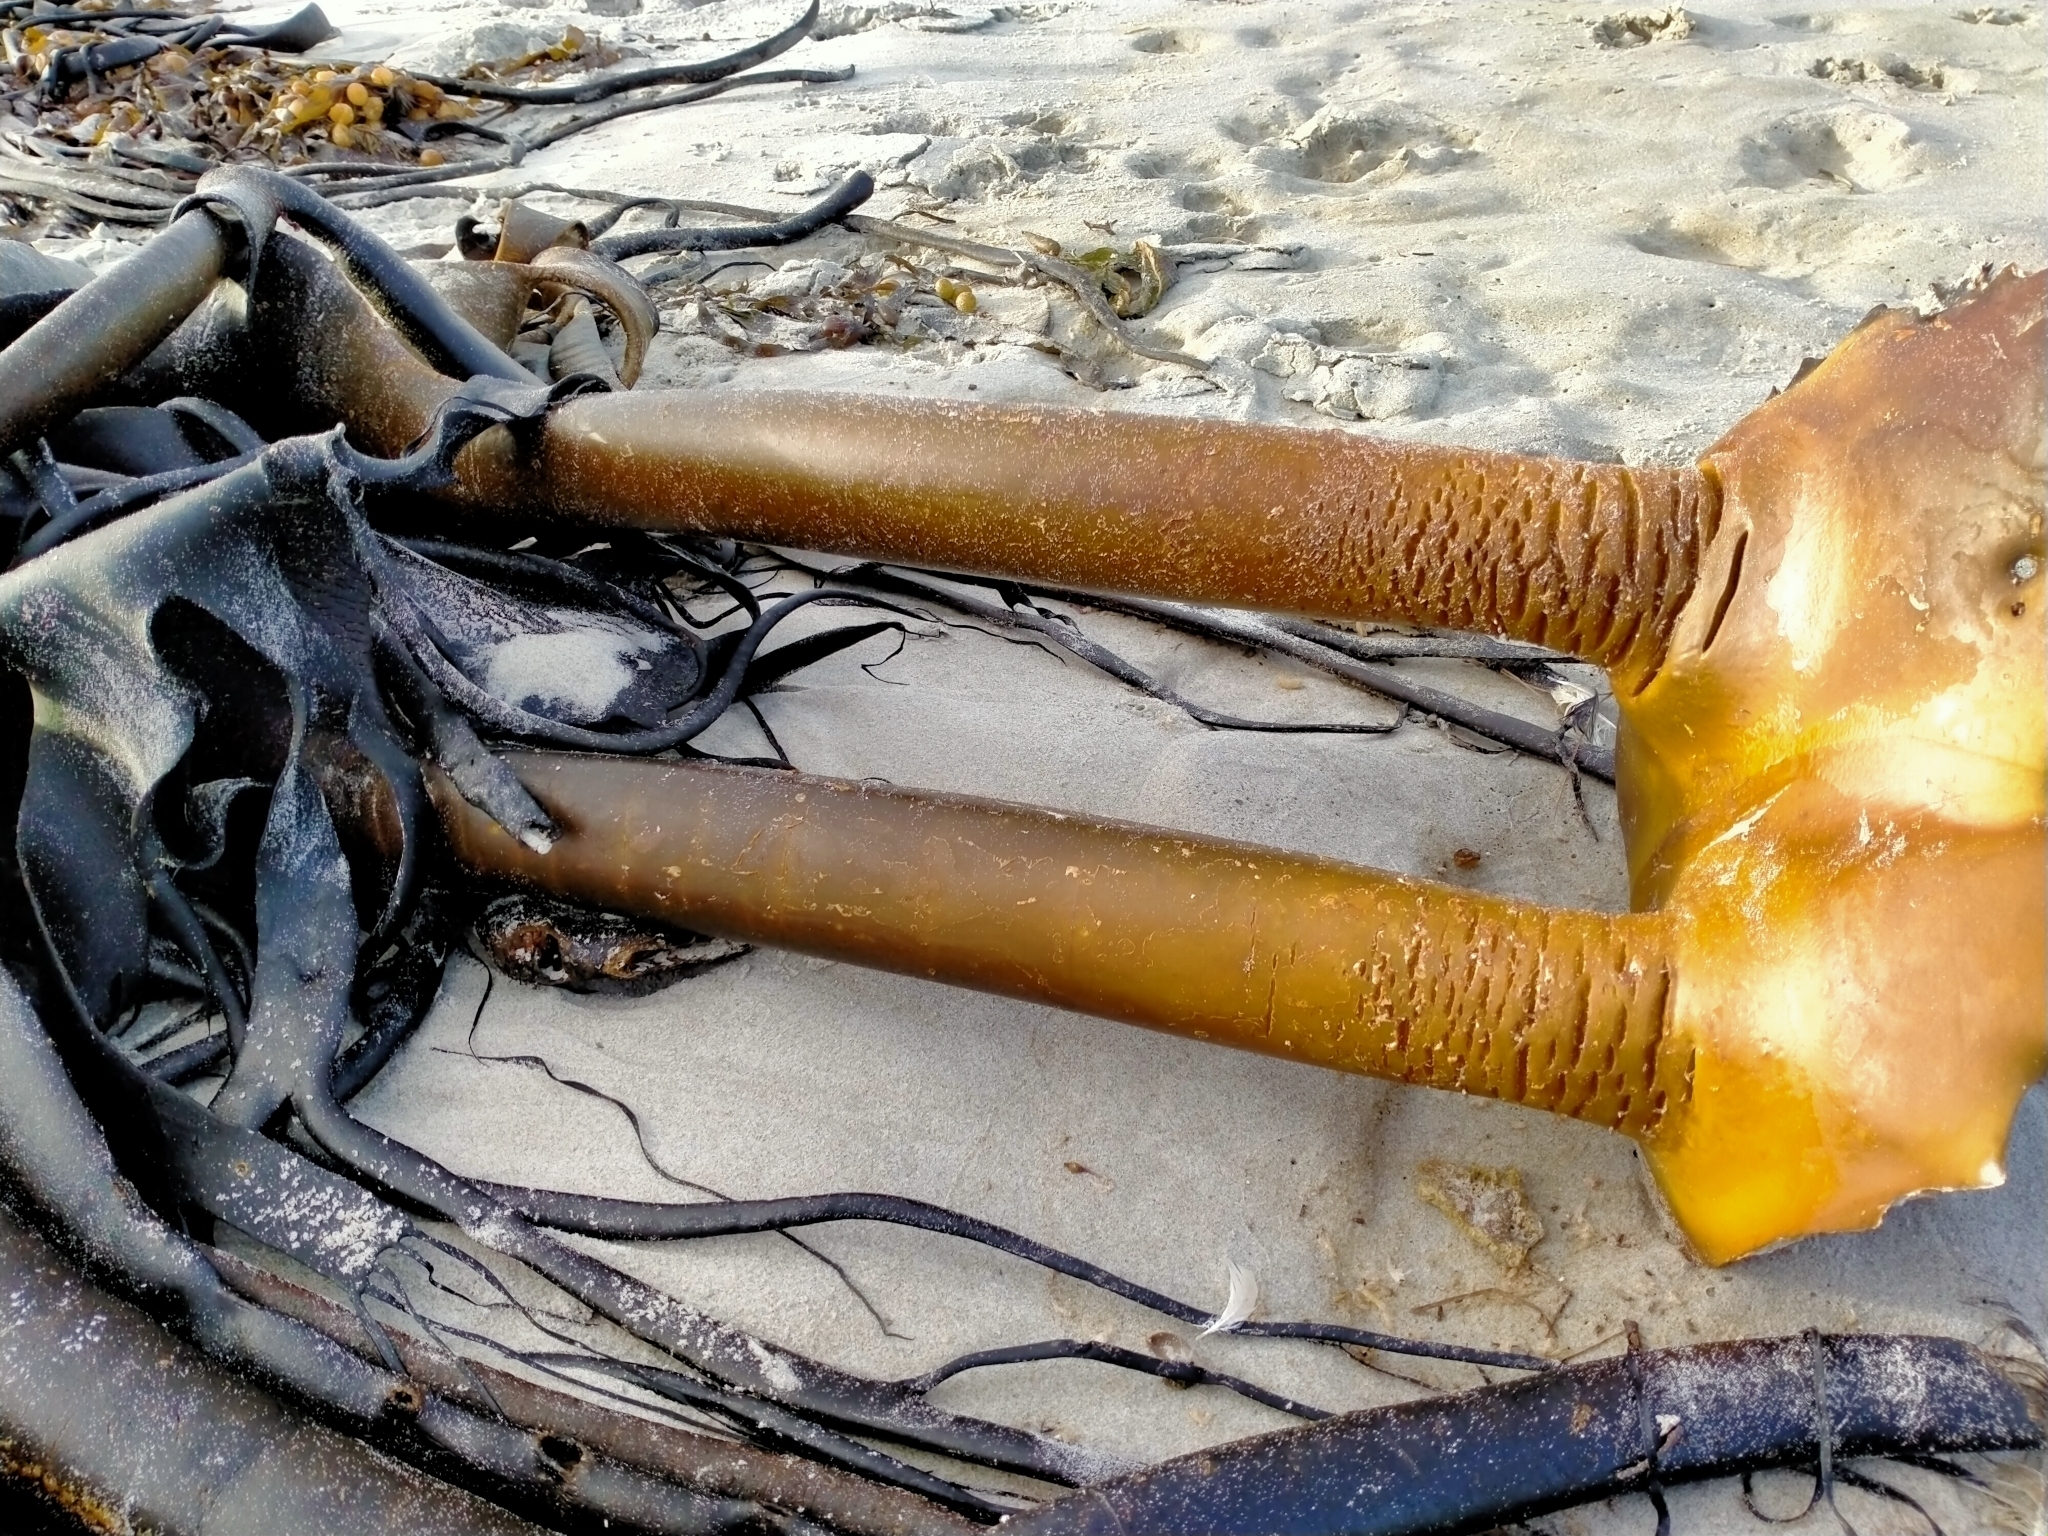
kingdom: Chromista
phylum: Ochrophyta
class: Phaeophyceae
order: Fucales
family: Durvillaeaceae
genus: Durvillaea
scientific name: Durvillaea antarctica
